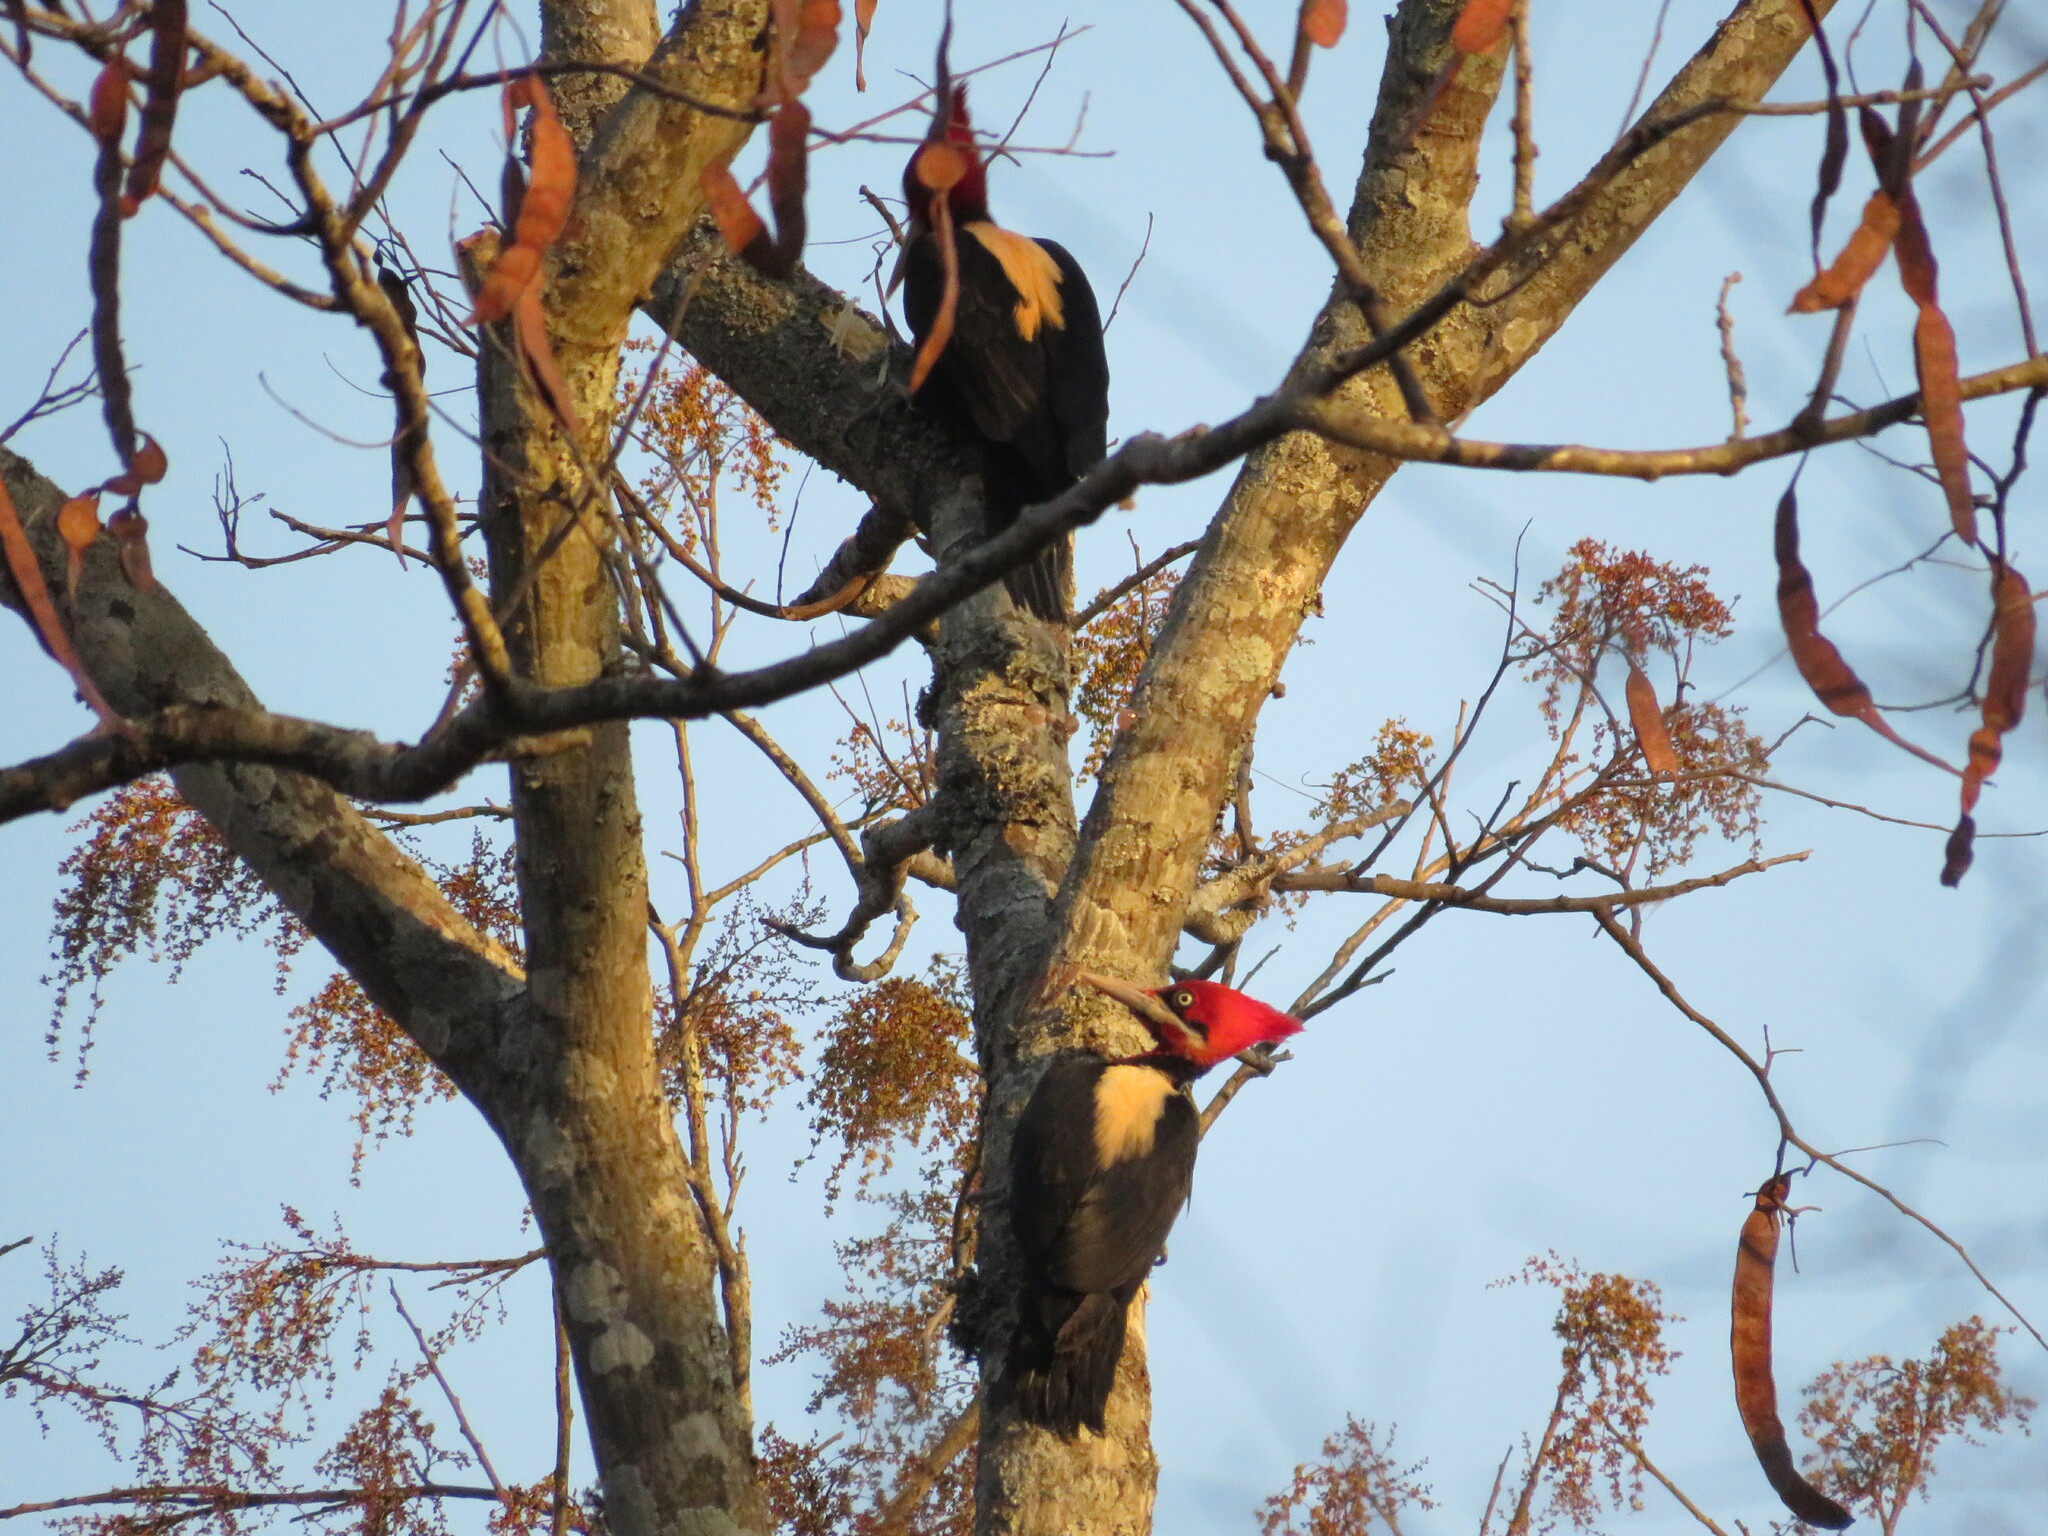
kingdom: Animalia
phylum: Chordata
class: Aves
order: Piciformes
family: Picidae
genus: Campephilus
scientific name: Campephilus leucopogon
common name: Cream-backed woodpecker
